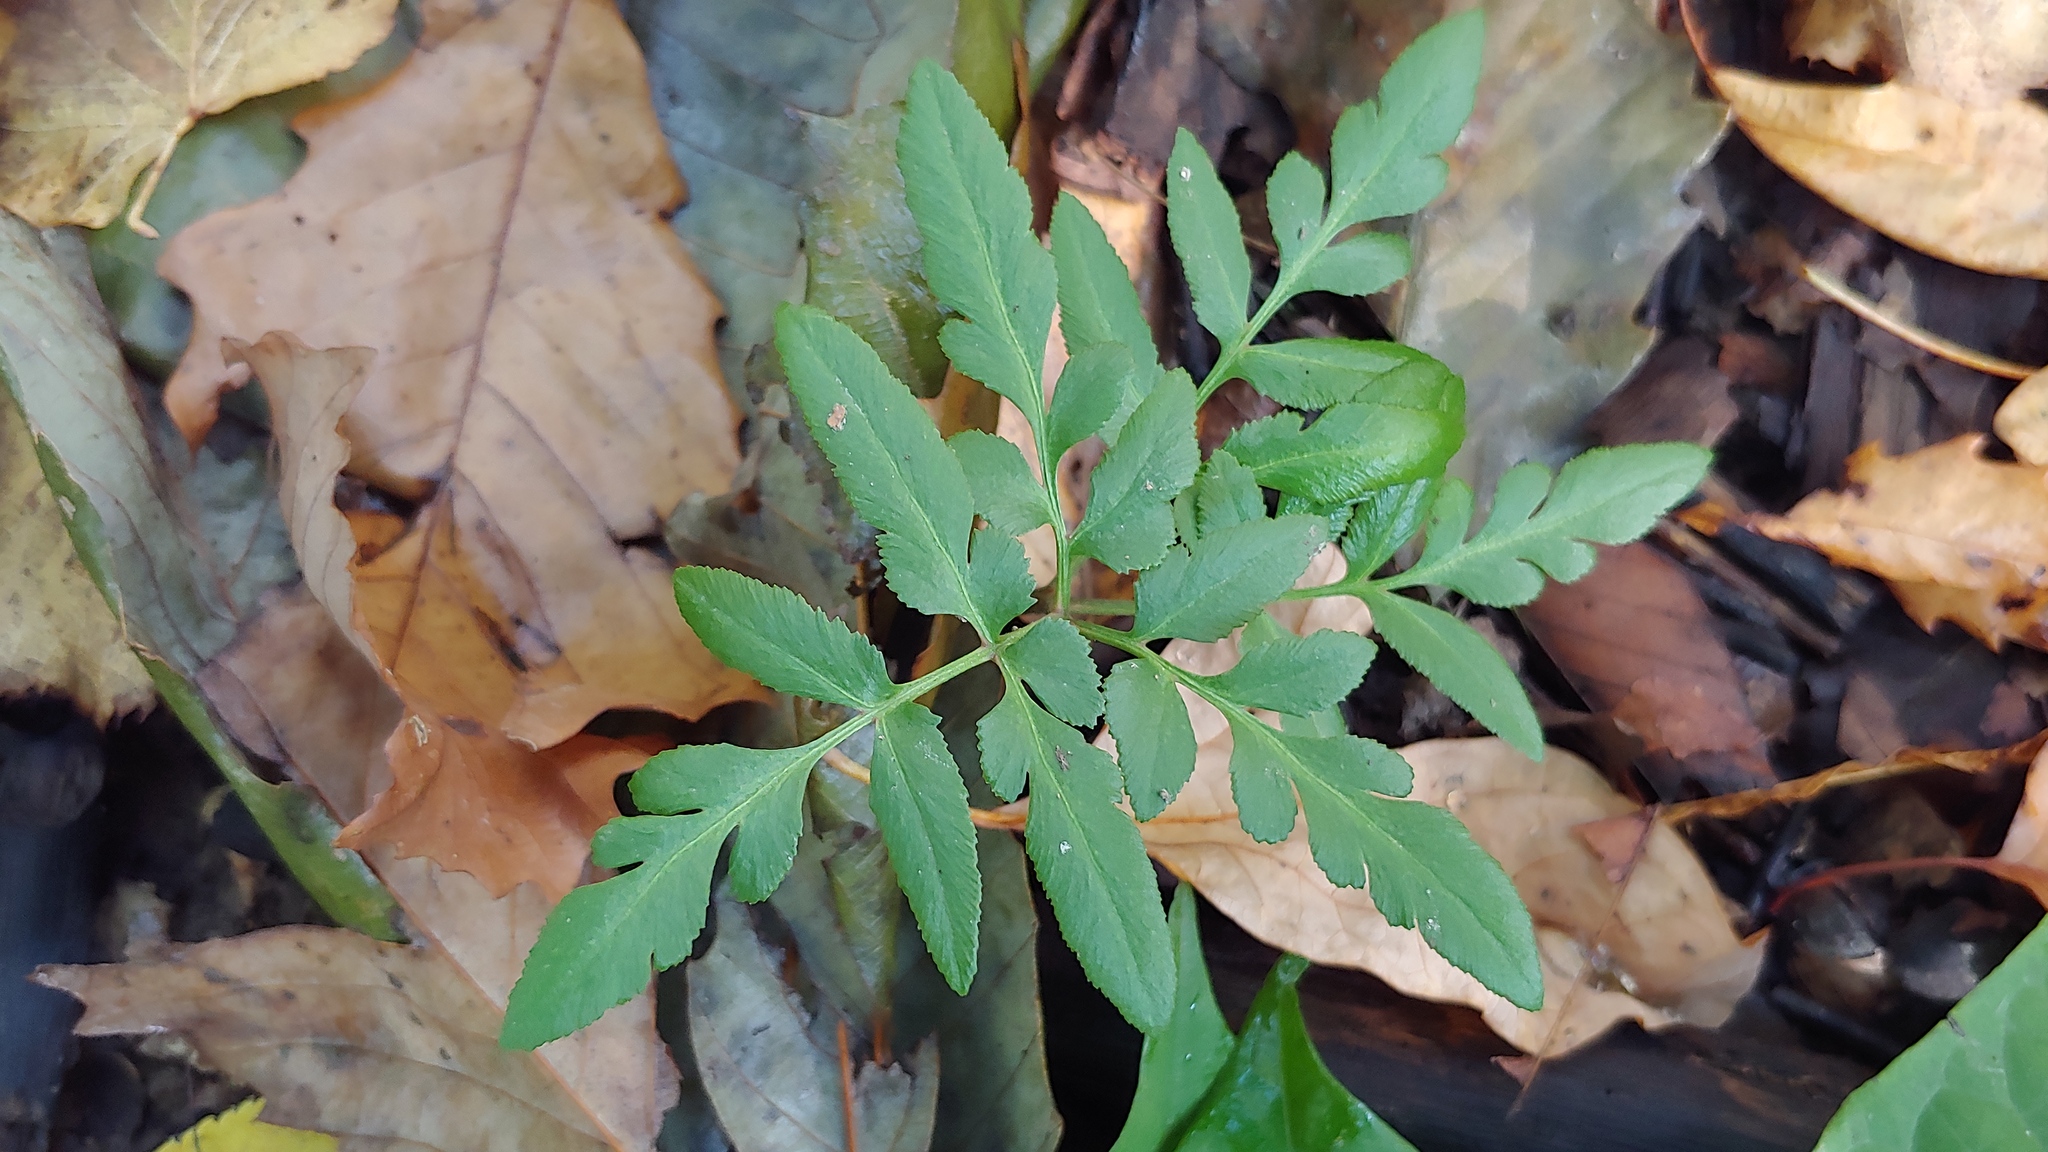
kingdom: Plantae
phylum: Tracheophyta
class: Polypodiopsida
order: Ophioglossales
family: Ophioglossaceae
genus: Sceptridium
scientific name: Sceptridium dissectum
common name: Cut-leaved grapefern
